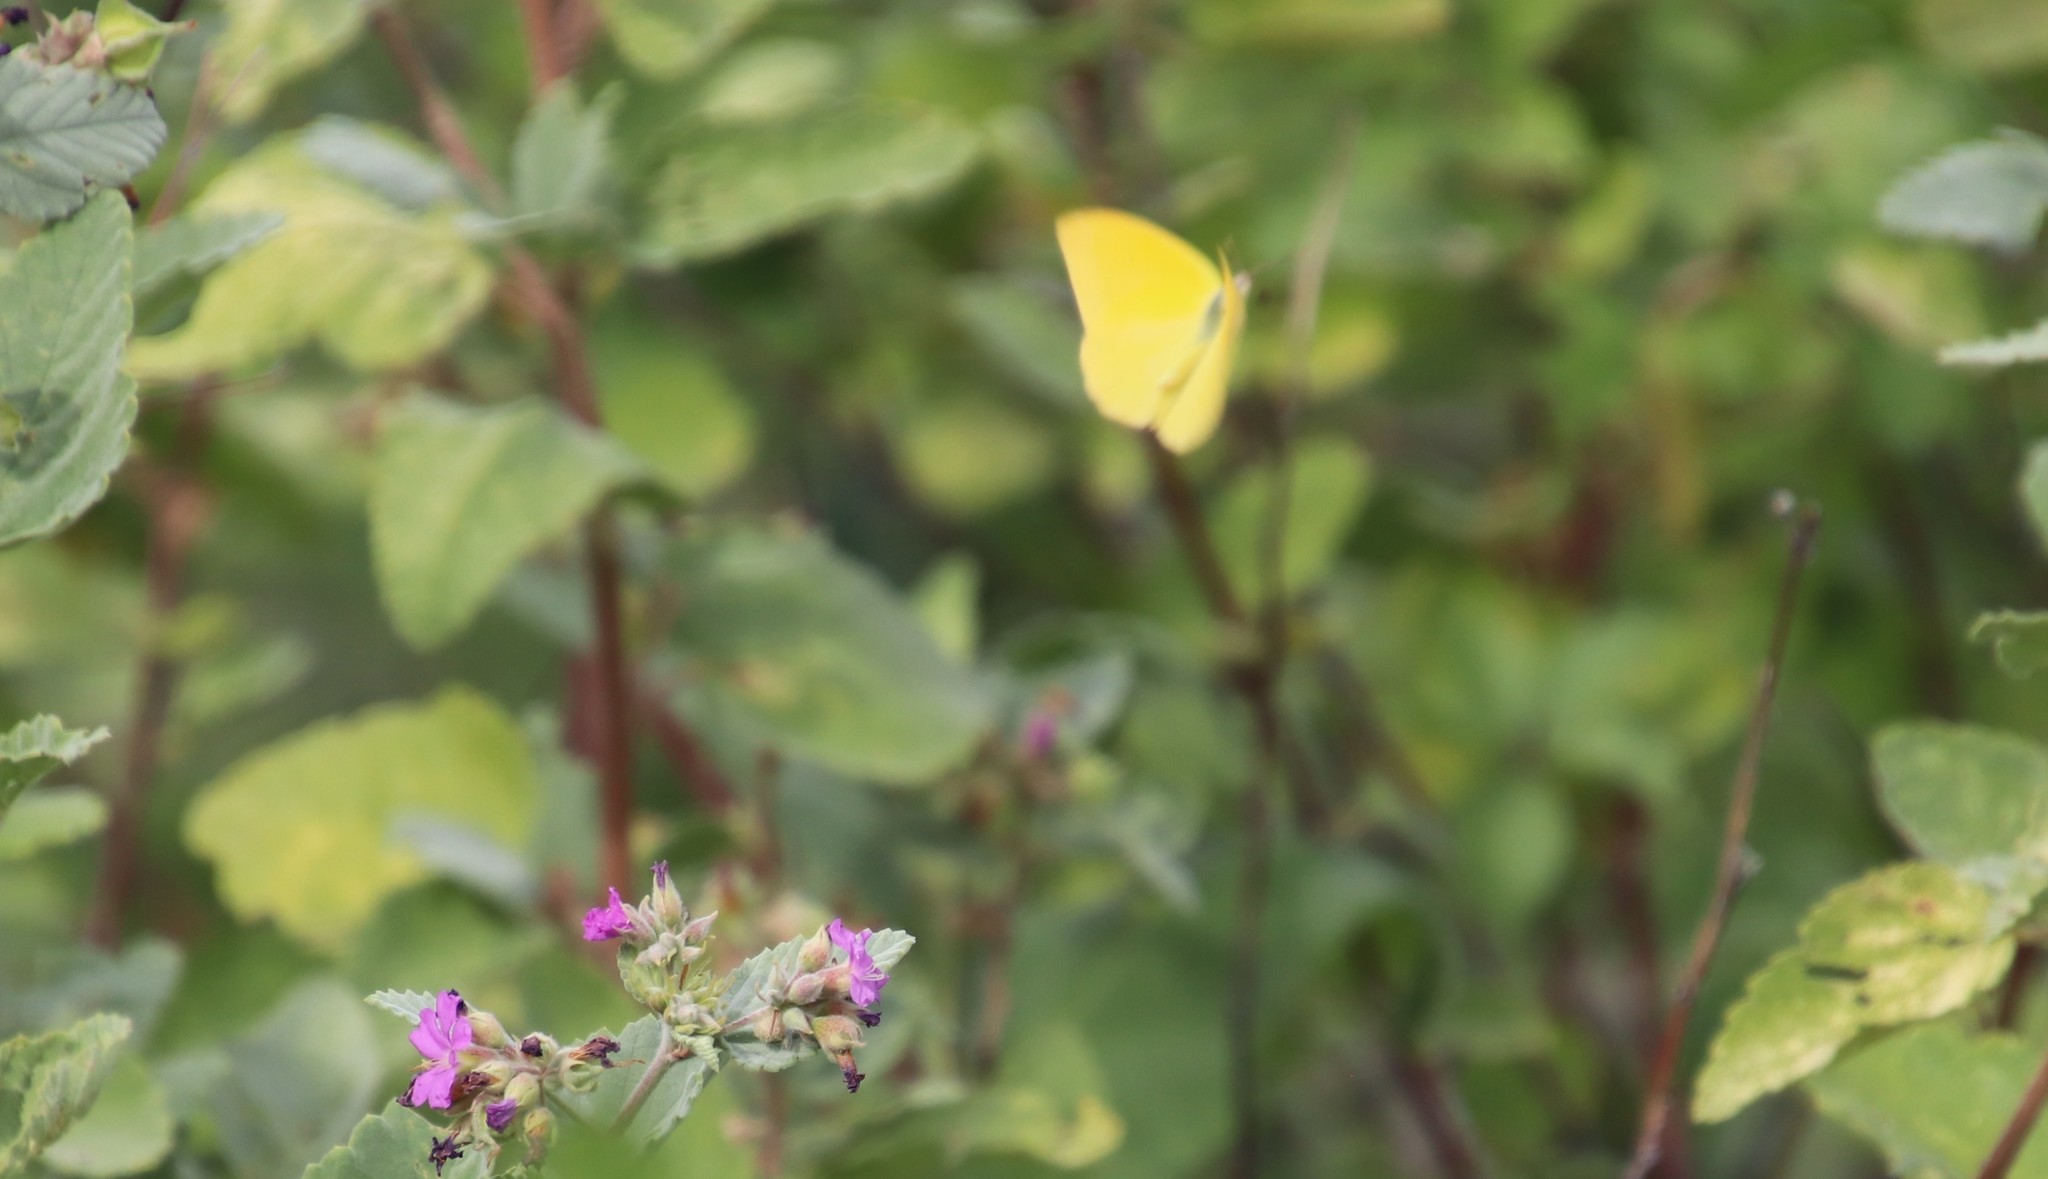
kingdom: Animalia
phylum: Arthropoda
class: Insecta
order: Lepidoptera
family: Pieridae
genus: Phoebis
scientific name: Phoebis agarithe
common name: Large orange sulphur
